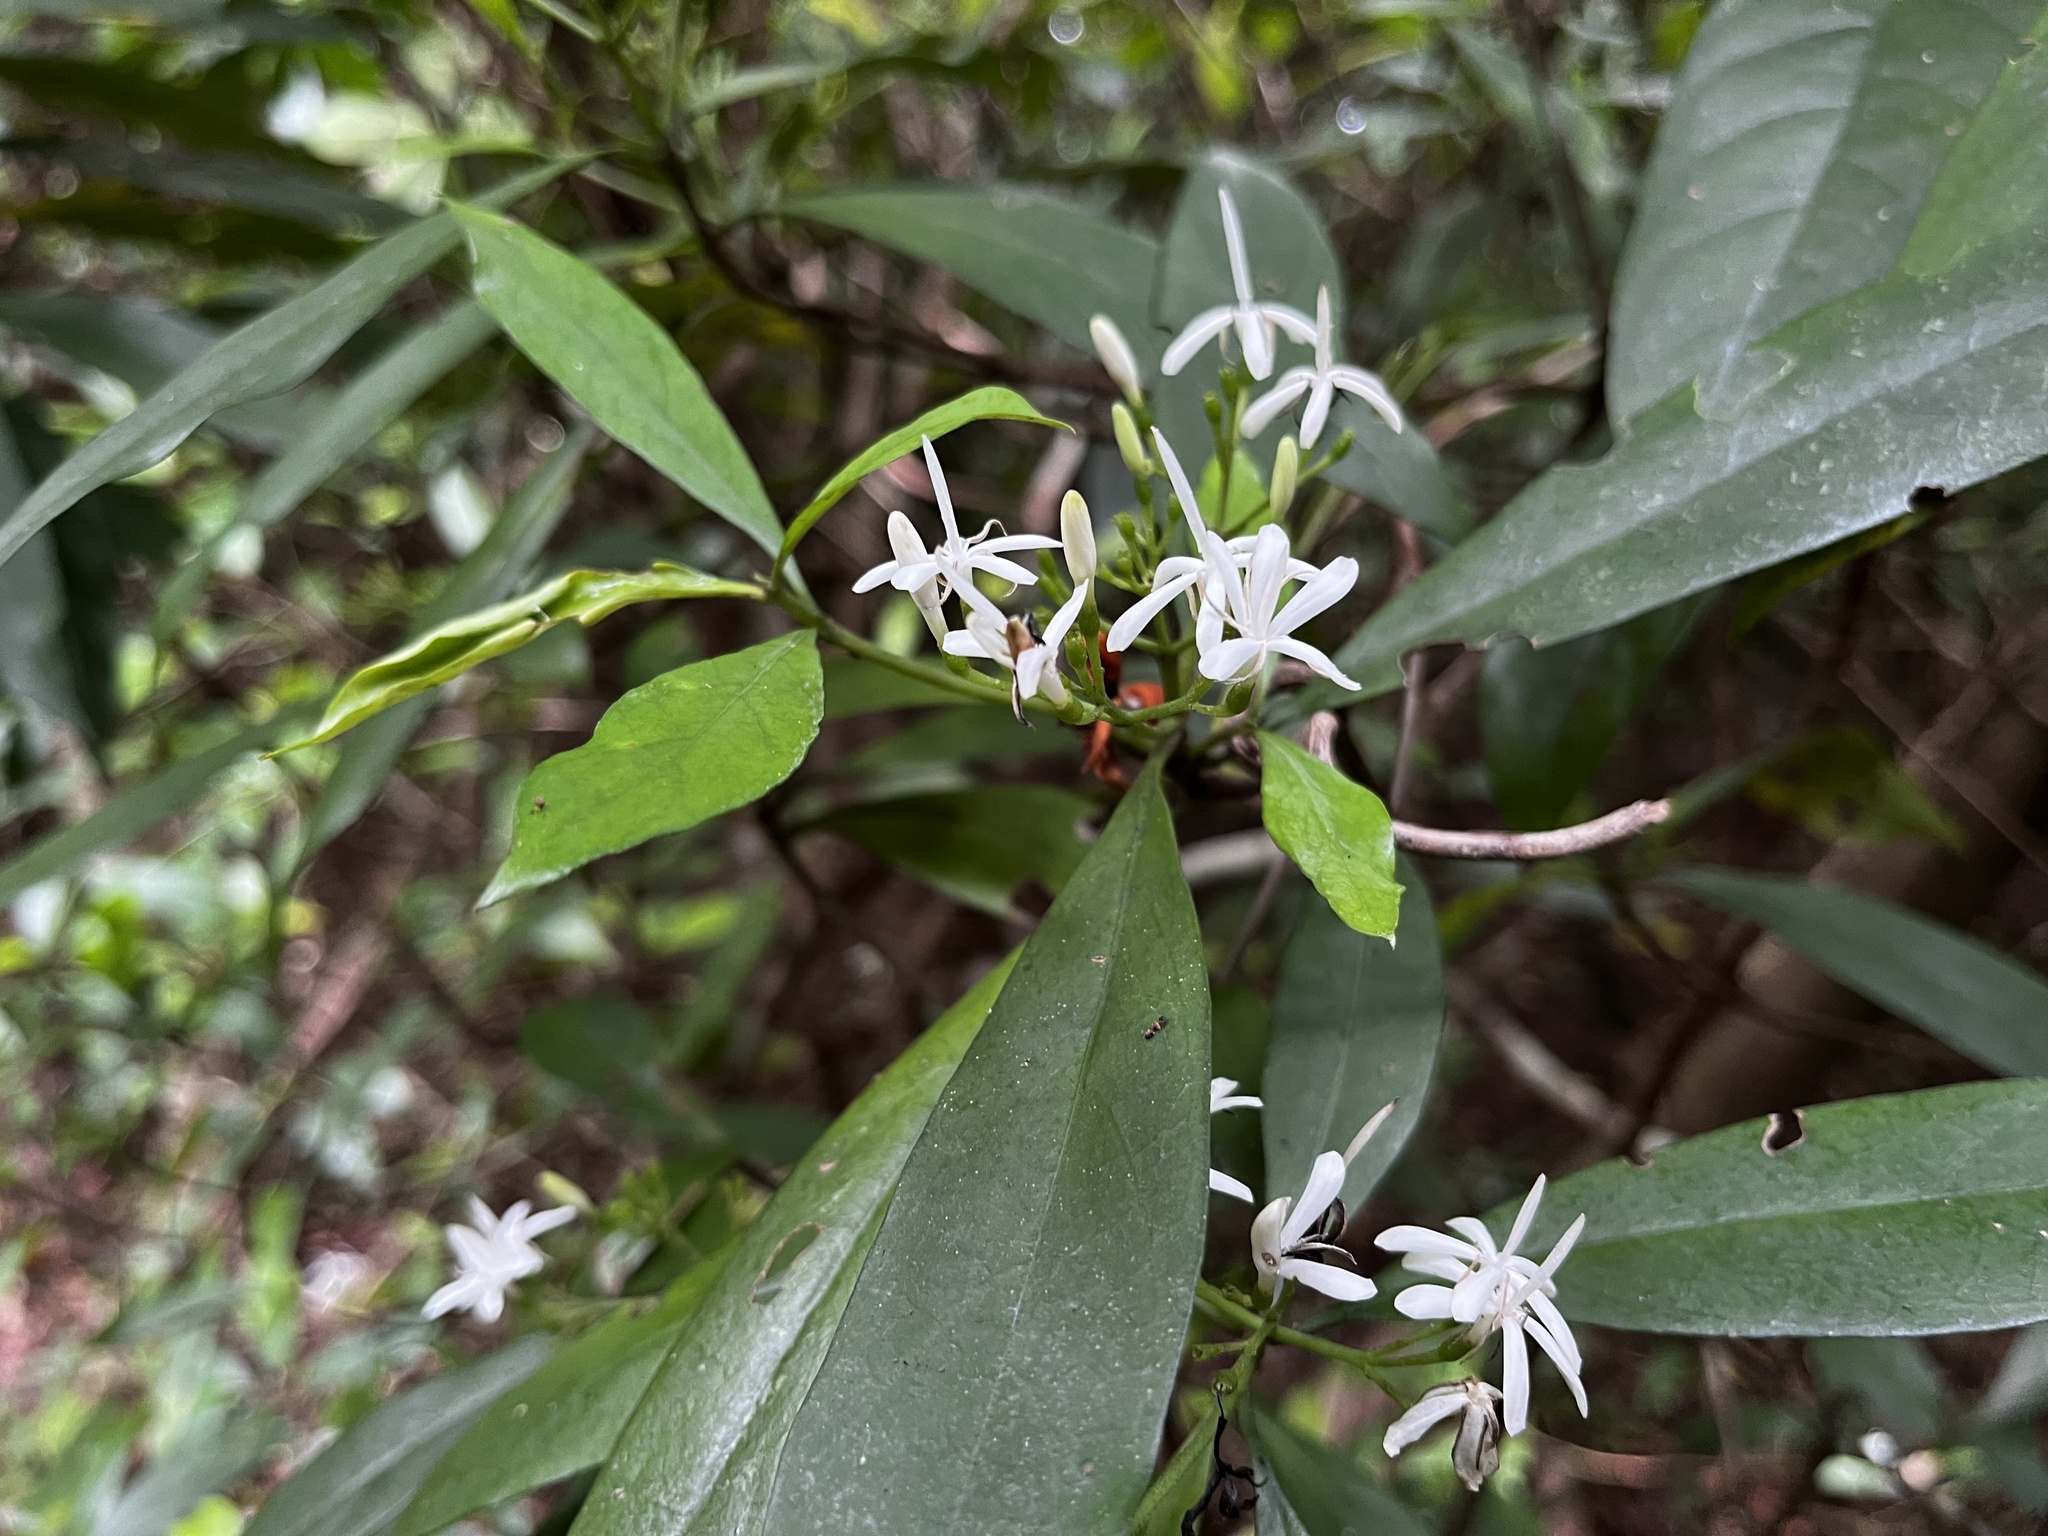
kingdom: Plantae
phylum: Tracheophyta
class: Magnoliopsida
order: Gentianales
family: Rubiaceae
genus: Tarenna
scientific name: Tarenna gracilipes
